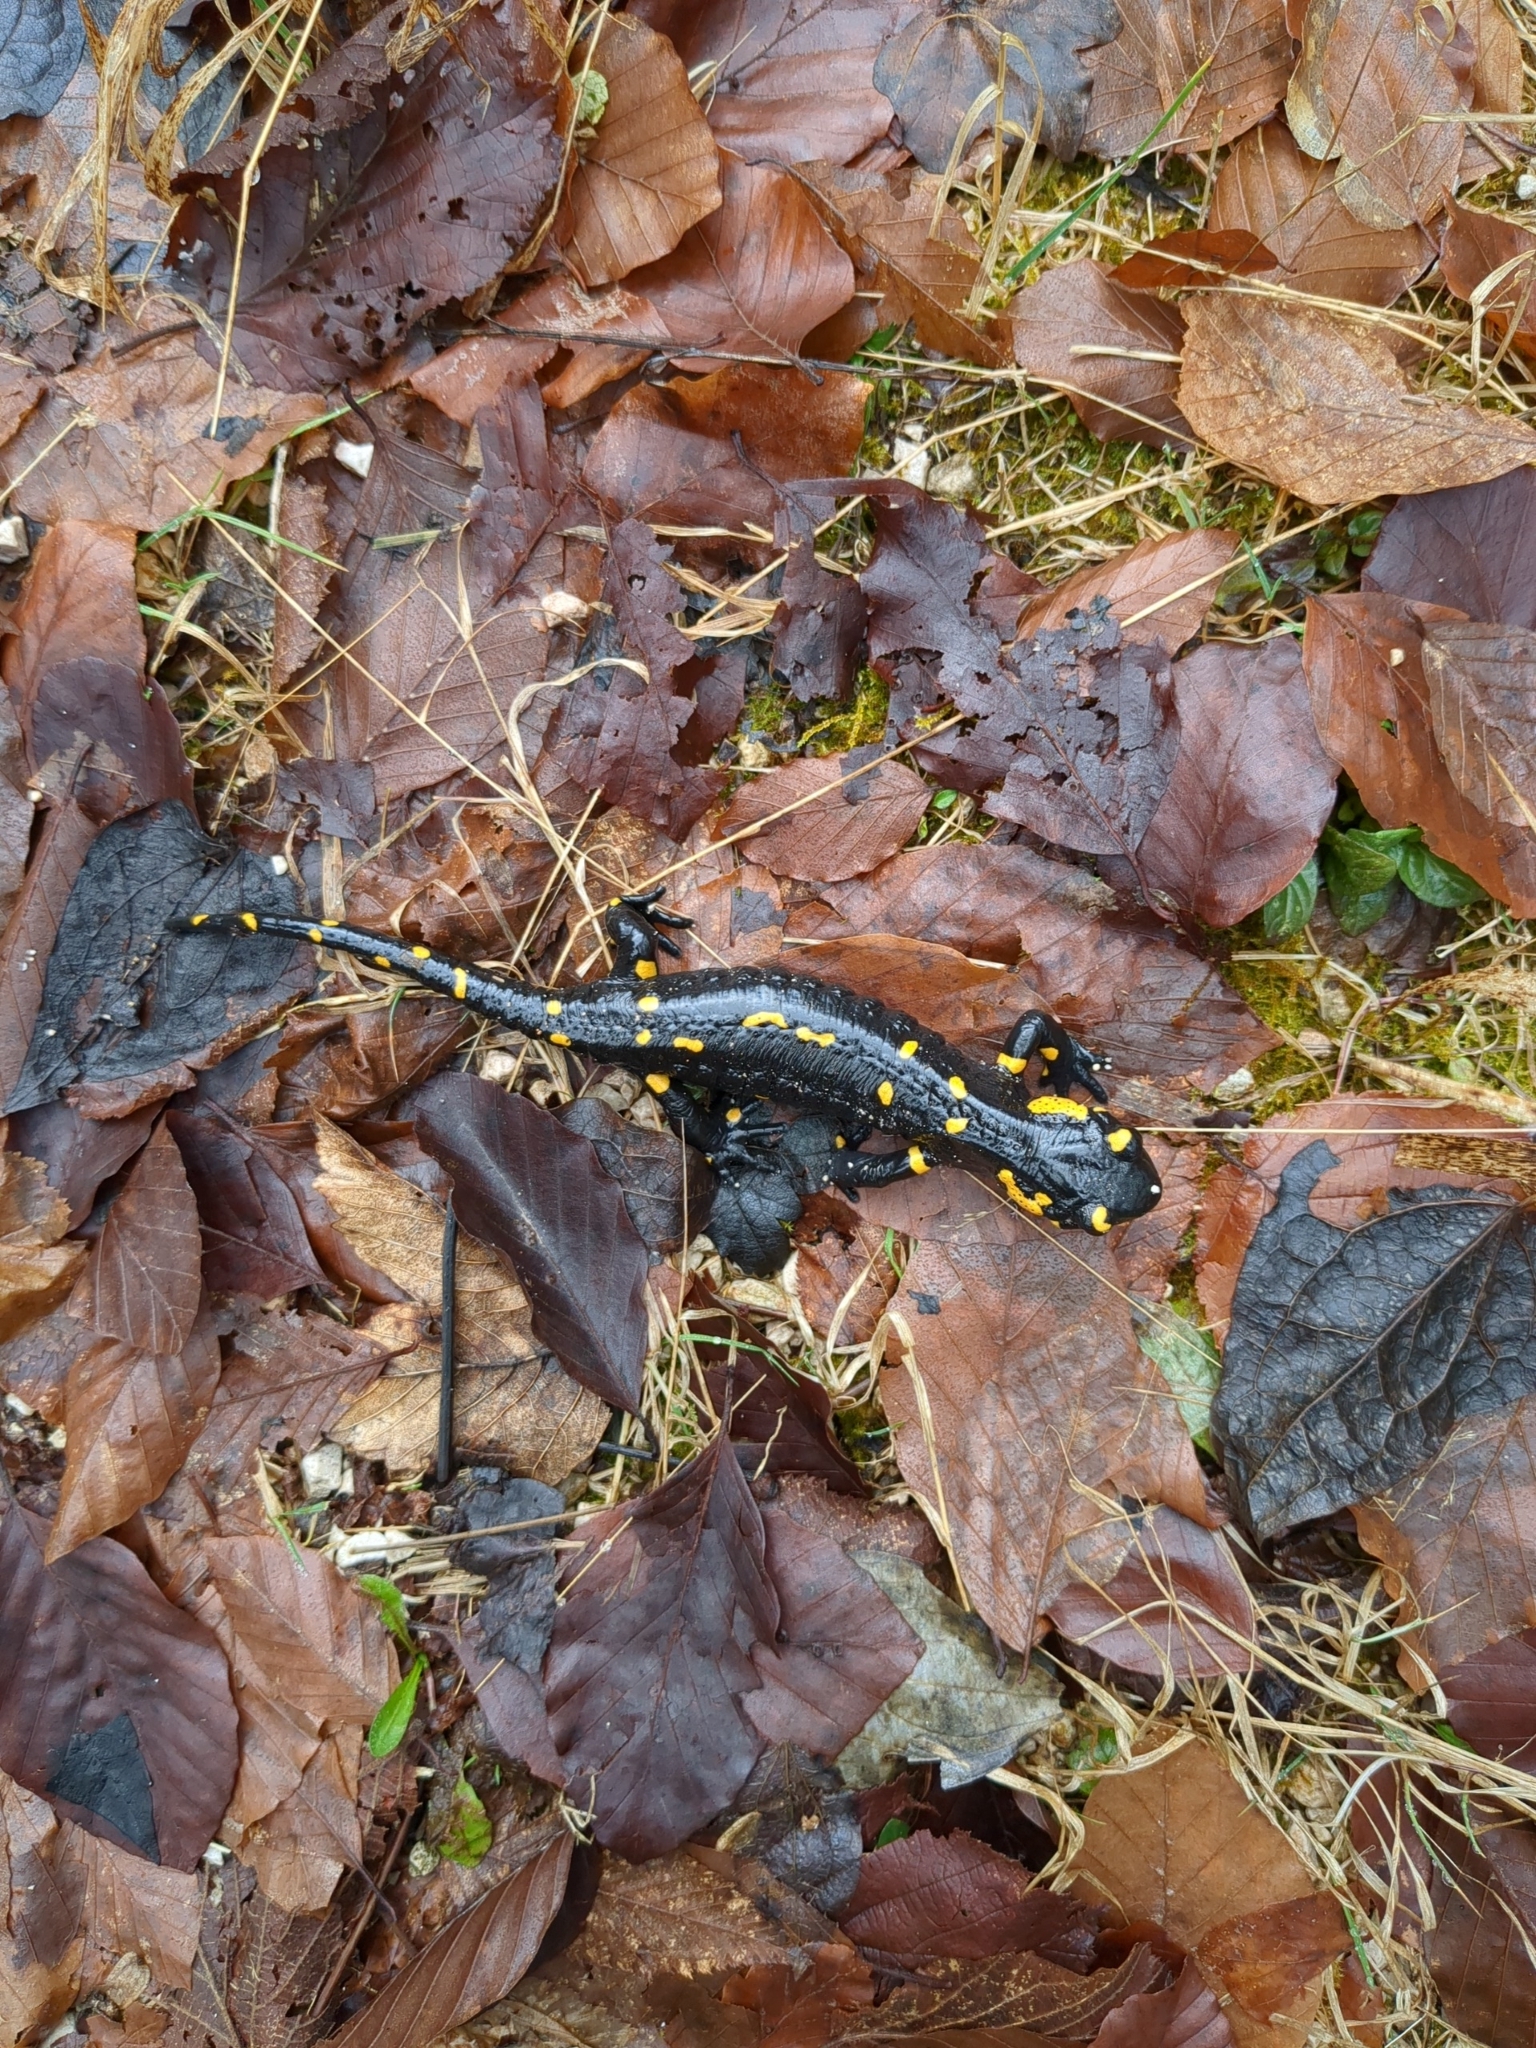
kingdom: Animalia
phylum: Chordata
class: Amphibia
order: Caudata
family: Salamandridae
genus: Salamandra
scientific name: Salamandra salamandra
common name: Fire salamander
